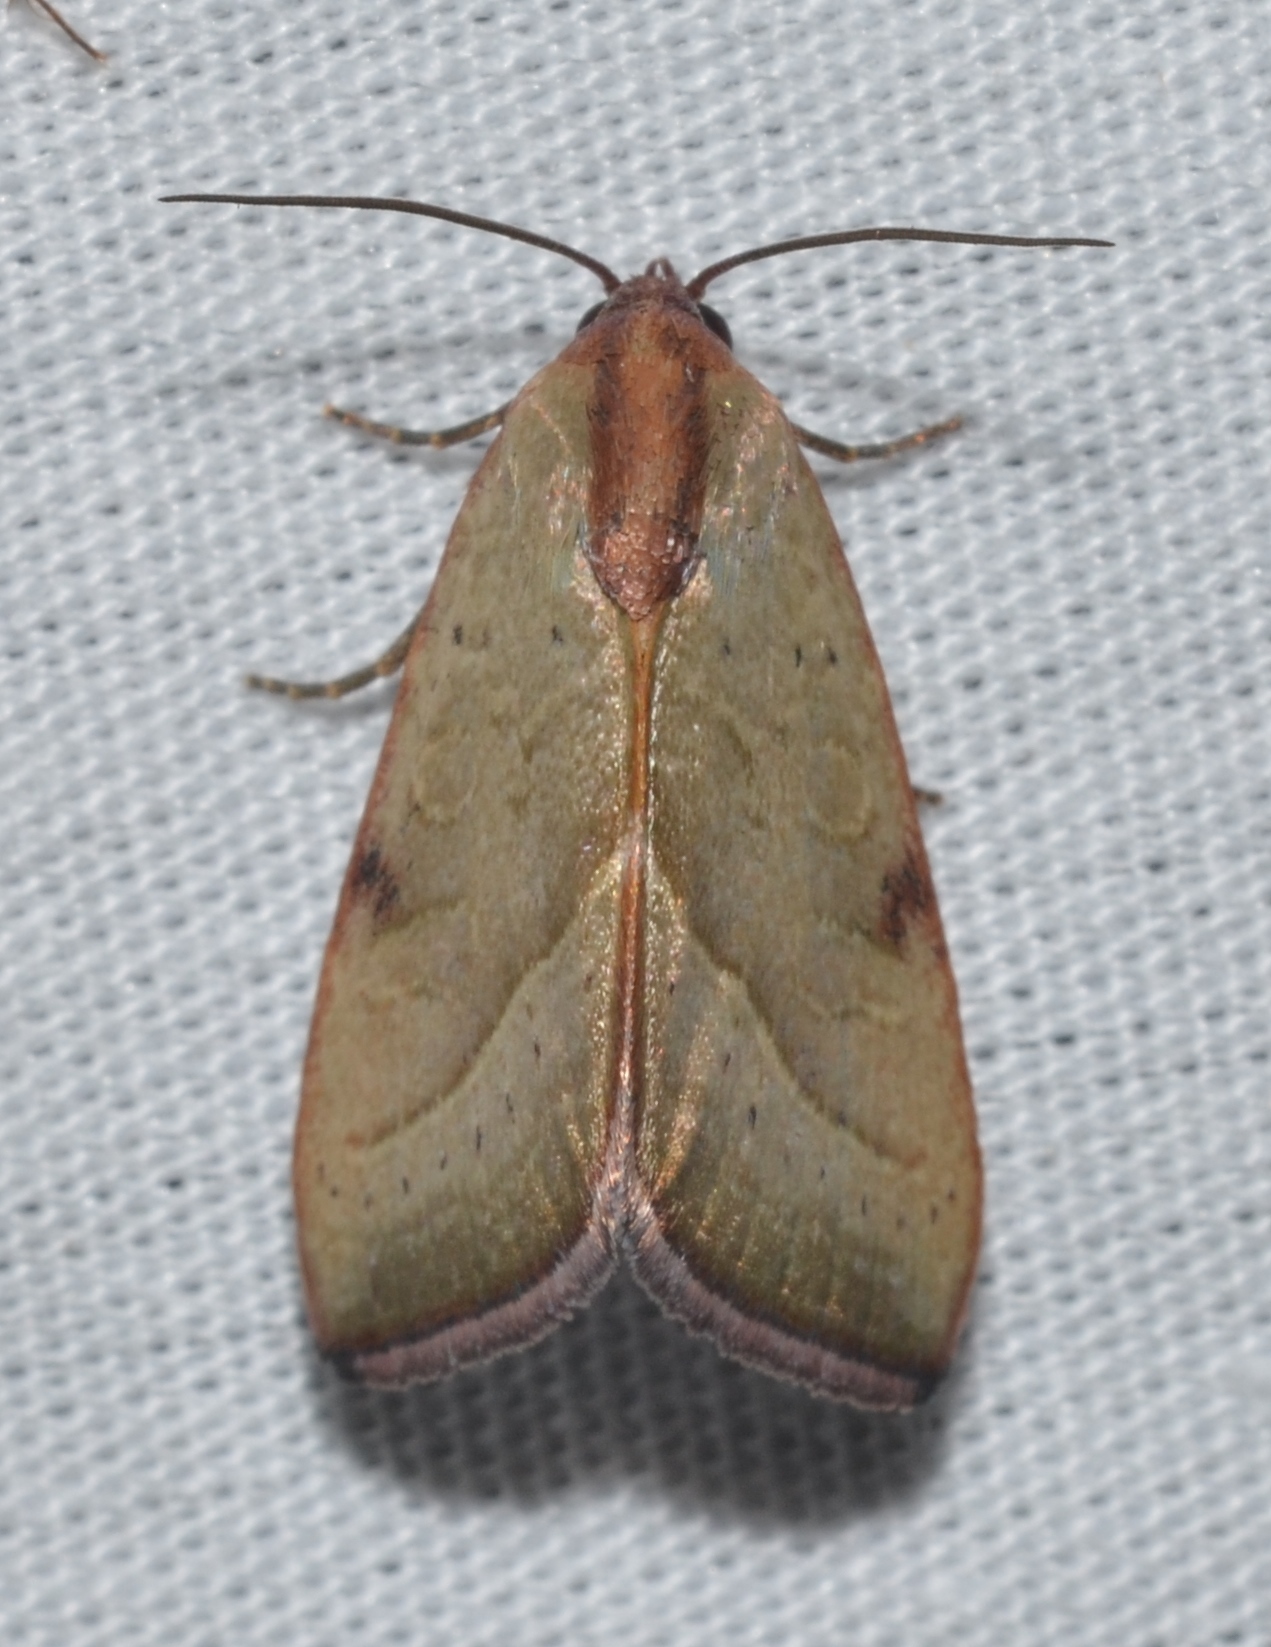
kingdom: Animalia
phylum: Arthropoda
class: Insecta
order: Lepidoptera
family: Noctuidae
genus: Galgula
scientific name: Galgula partita
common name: Wedgeling
